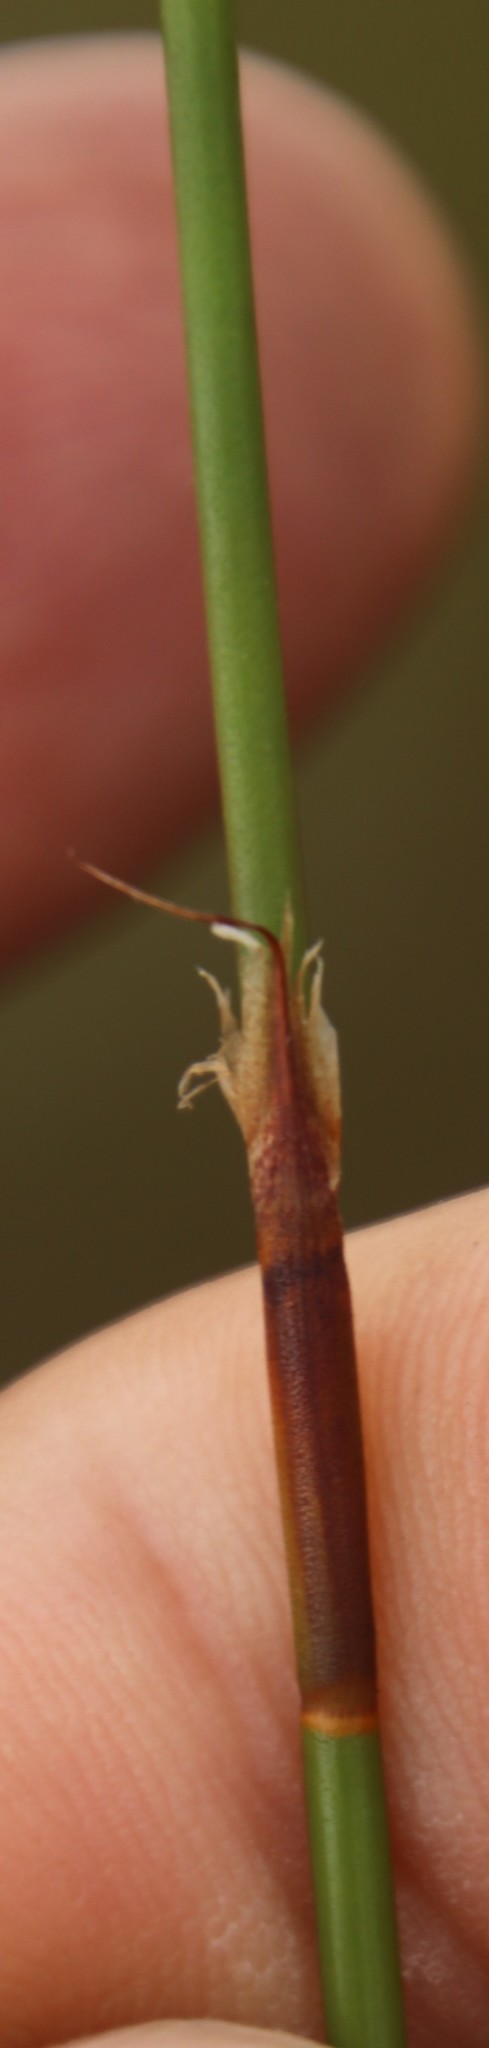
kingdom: Plantae
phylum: Tracheophyta
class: Liliopsida
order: Poales
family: Restionaceae
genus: Restio
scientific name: Restio capensis
